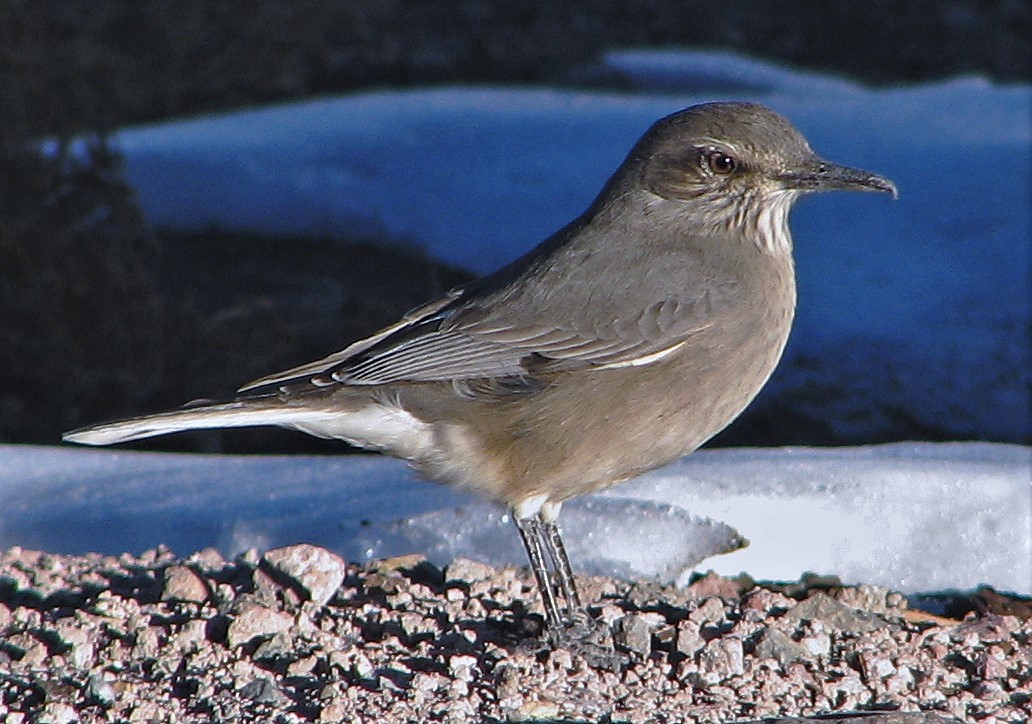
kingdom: Animalia
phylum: Chordata
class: Aves
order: Passeriformes
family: Tyrannidae
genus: Agriornis
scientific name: Agriornis montanus
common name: Black-billed shrike-tyrant
